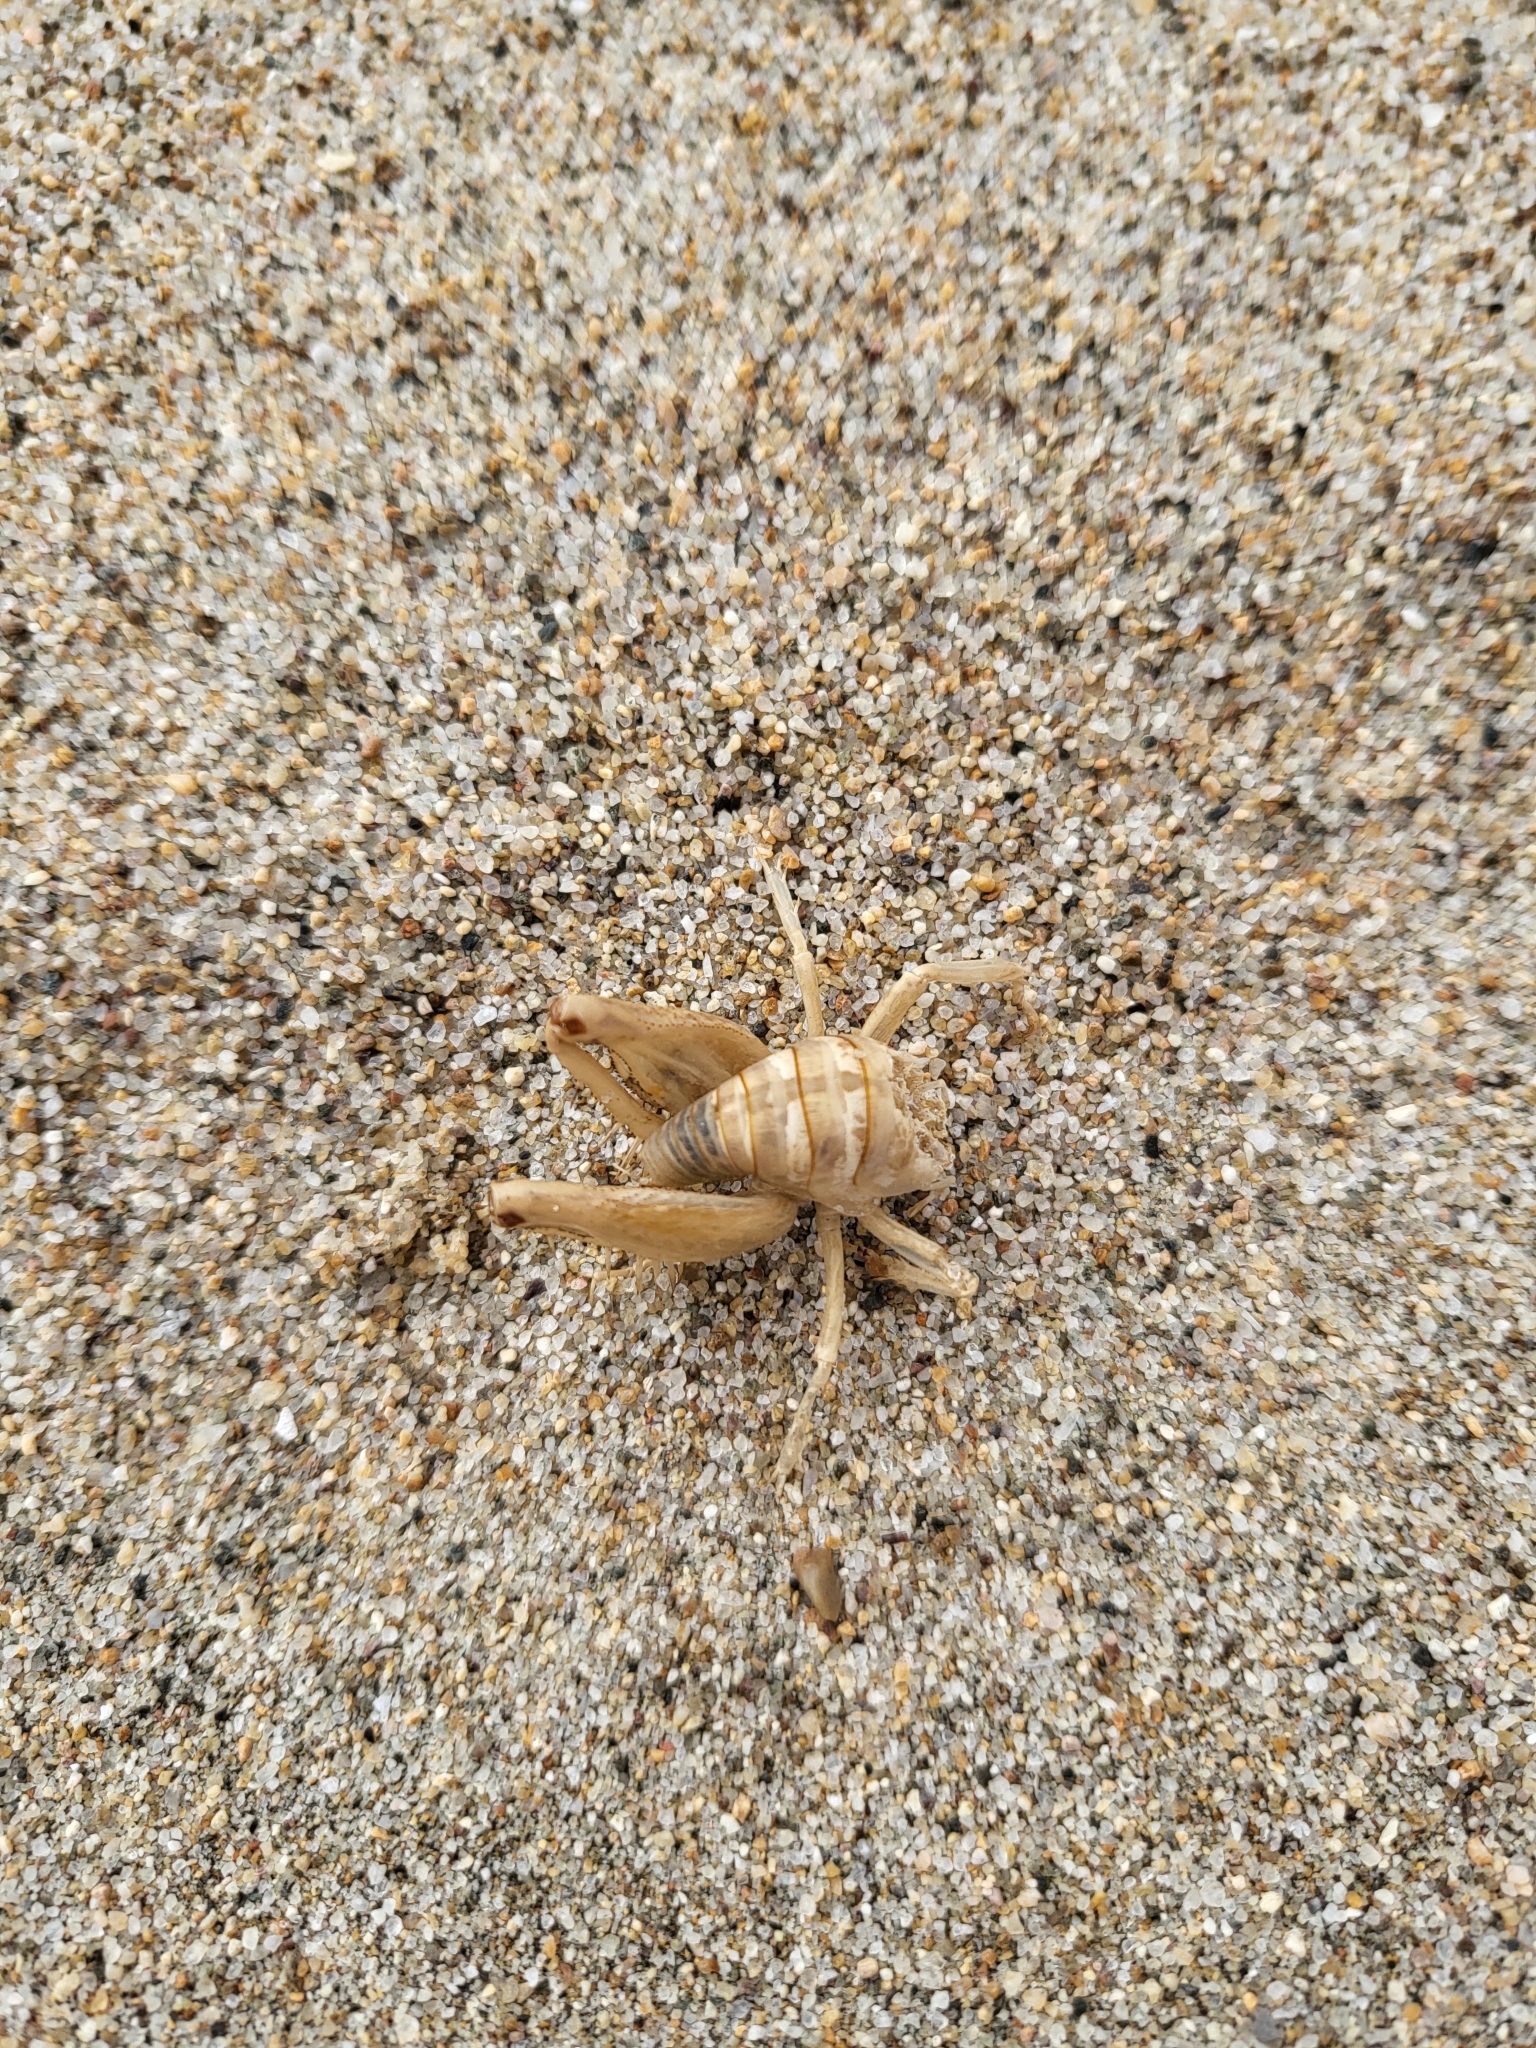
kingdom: Animalia
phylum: Arthropoda
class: Insecta
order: Orthoptera
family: Rhaphidophoridae
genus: Rhachocnemis
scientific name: Rhachocnemis validus
